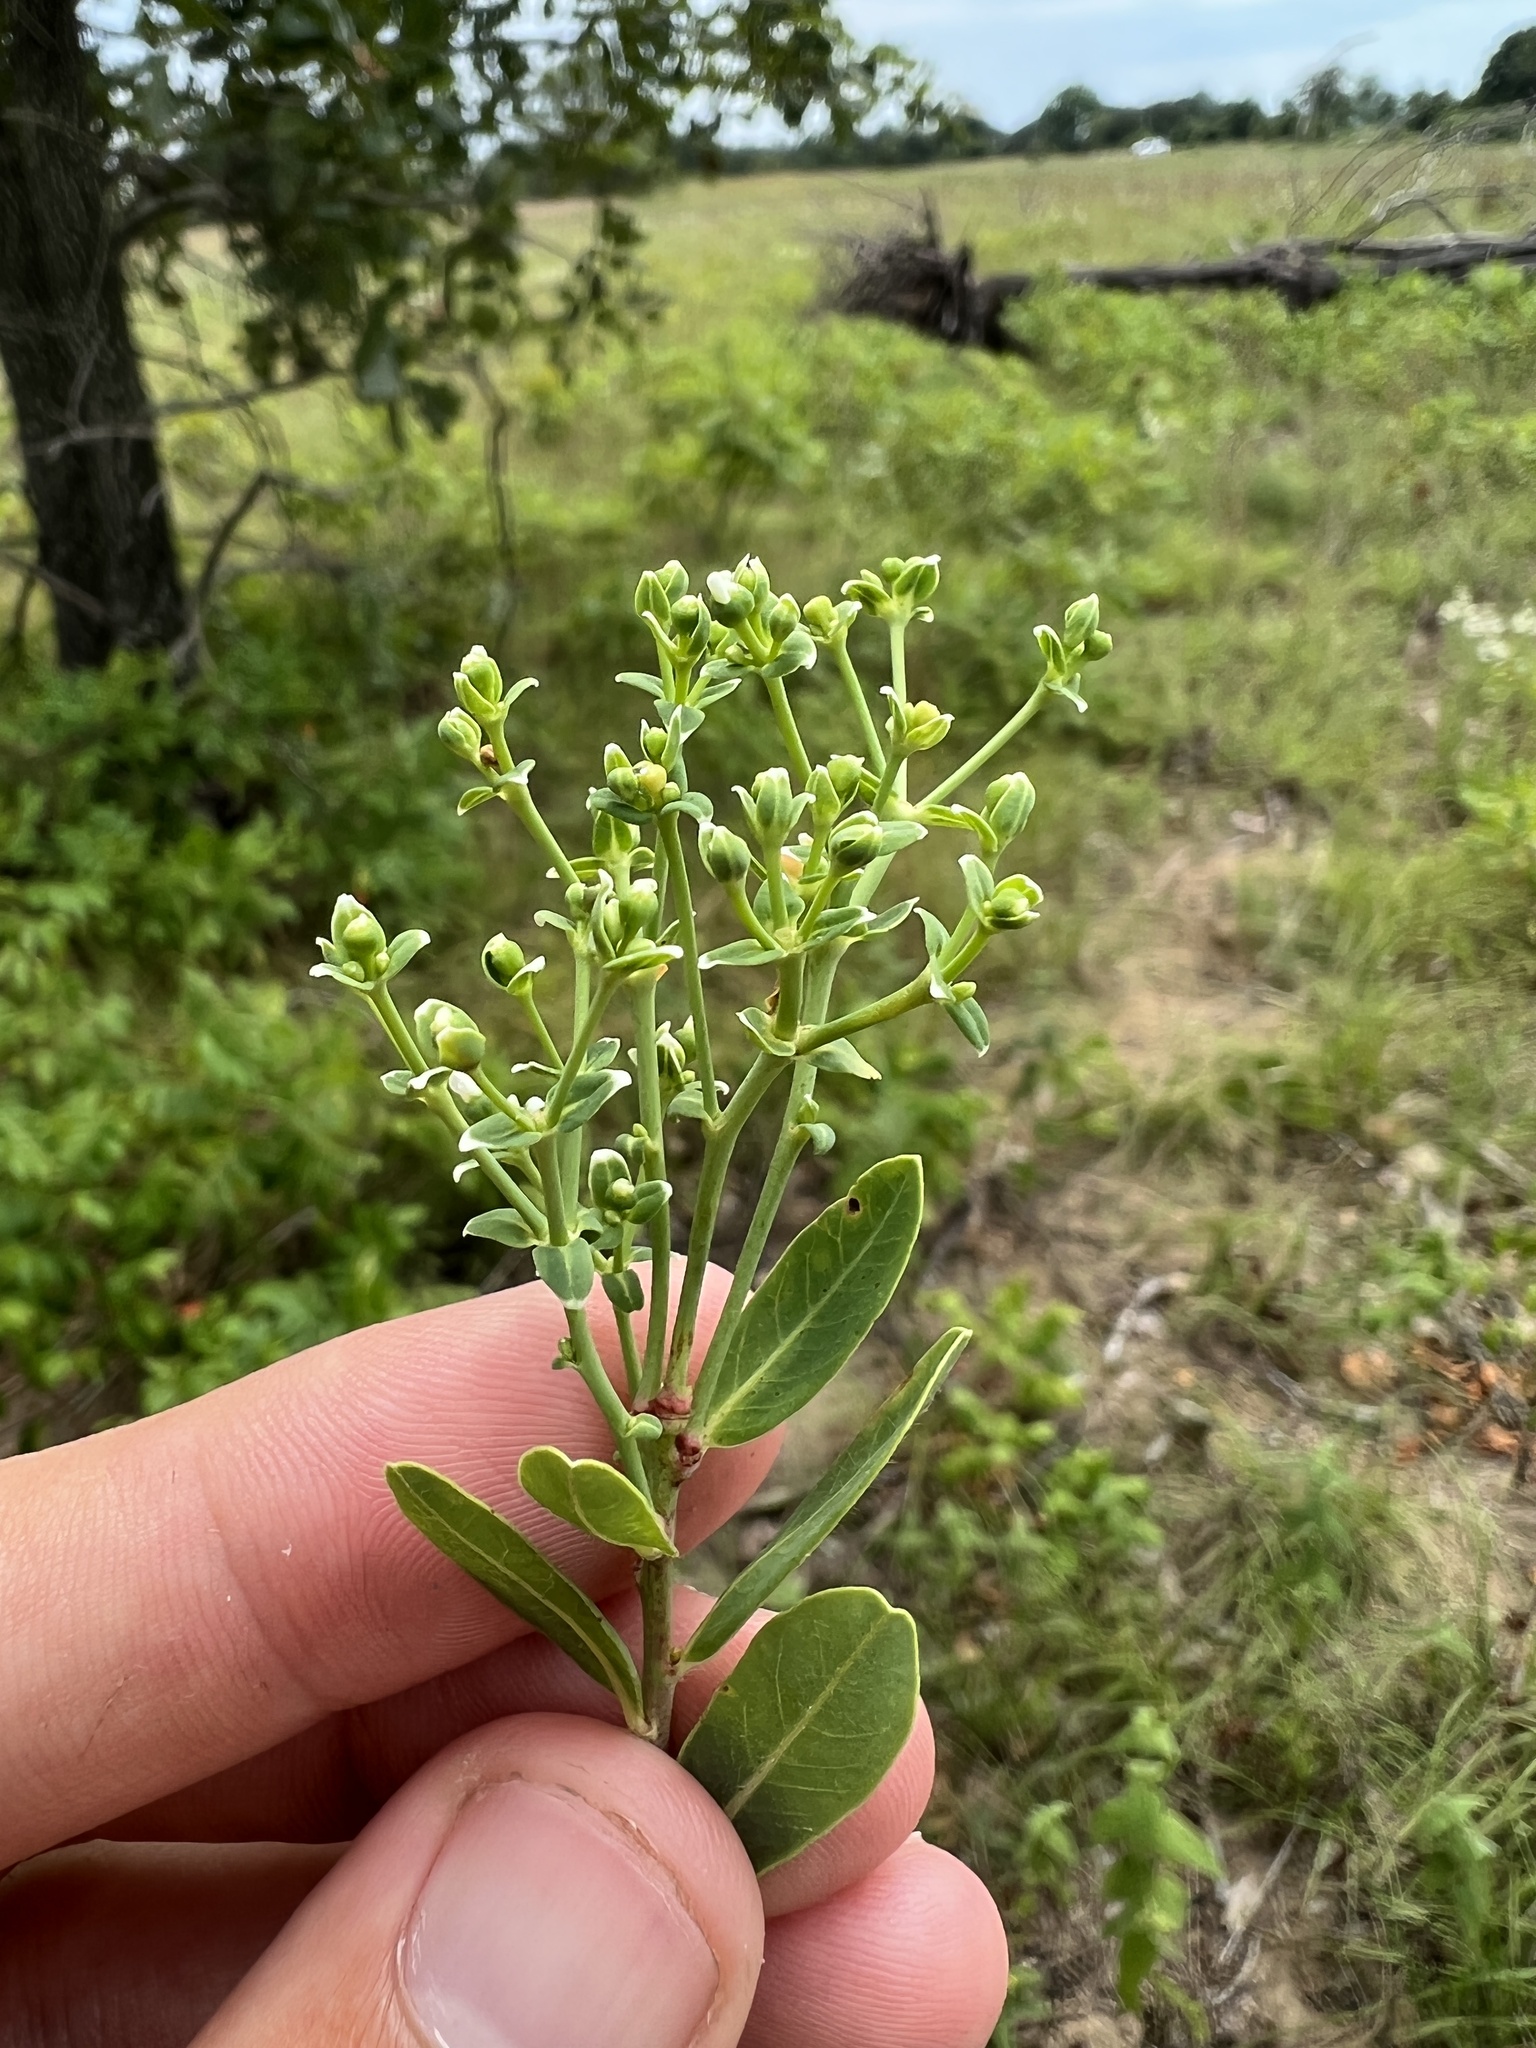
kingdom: Plantae
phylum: Tracheophyta
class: Magnoliopsida
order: Malpighiales
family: Euphorbiaceae
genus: Euphorbia
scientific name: Euphorbia corollata
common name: Flowering spurge
